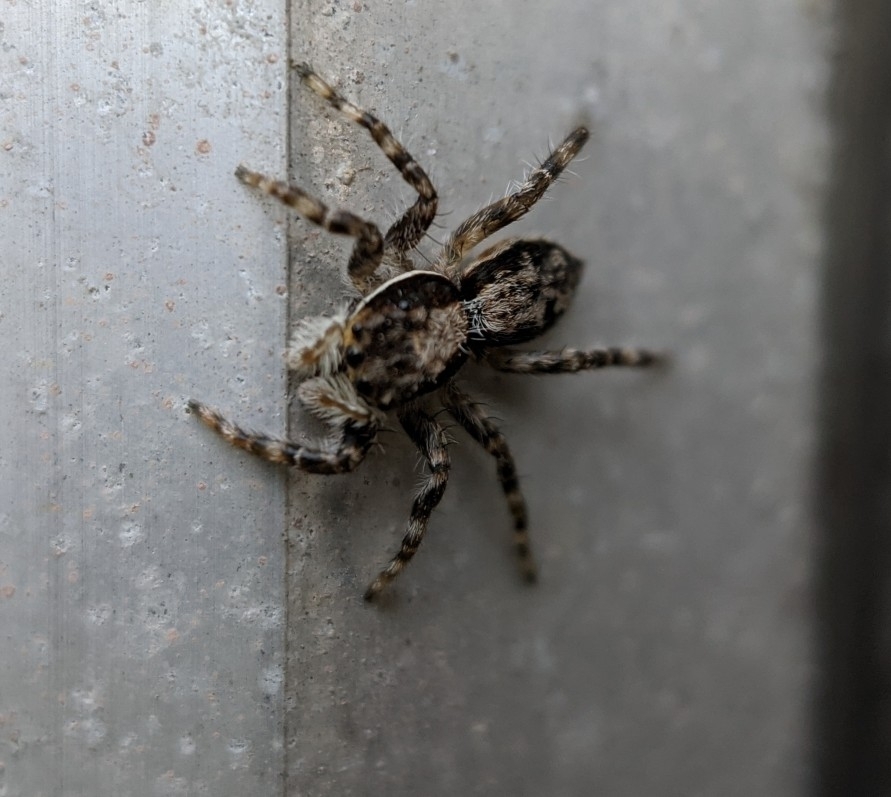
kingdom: Animalia
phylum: Arthropoda
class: Arachnida
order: Araneae
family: Salticidae
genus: Menemerus
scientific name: Menemerus bivittatus
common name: Gray wall jumper
